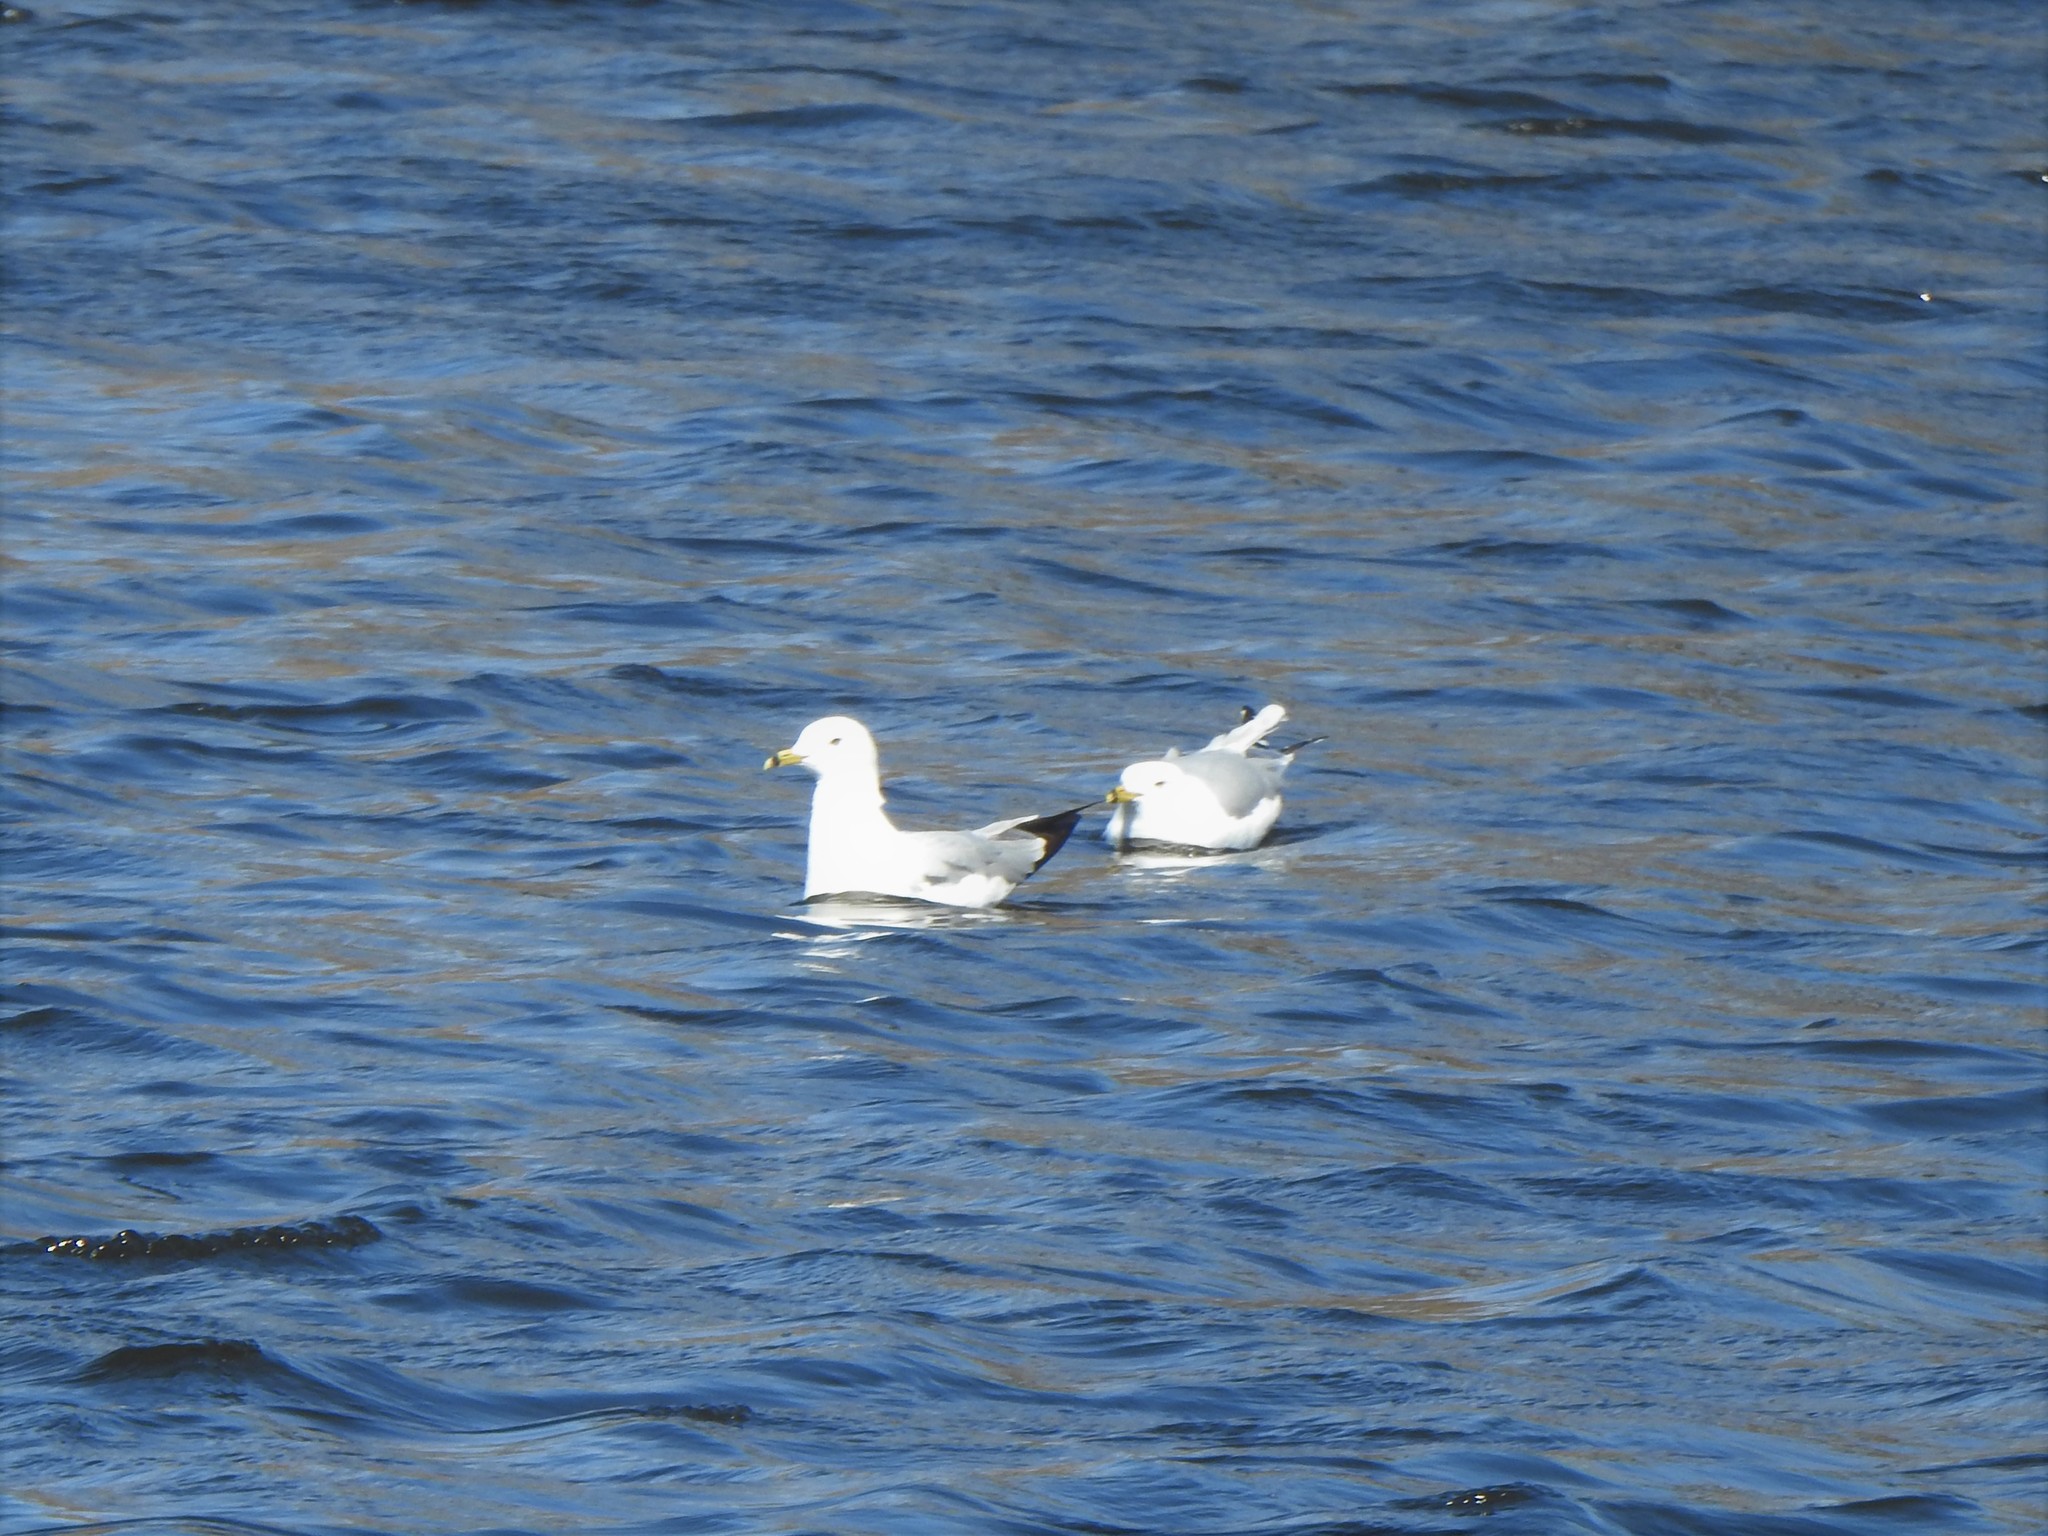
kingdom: Animalia
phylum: Chordata
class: Aves
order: Charadriiformes
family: Laridae
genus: Larus
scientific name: Larus delawarensis
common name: Ring-billed gull
